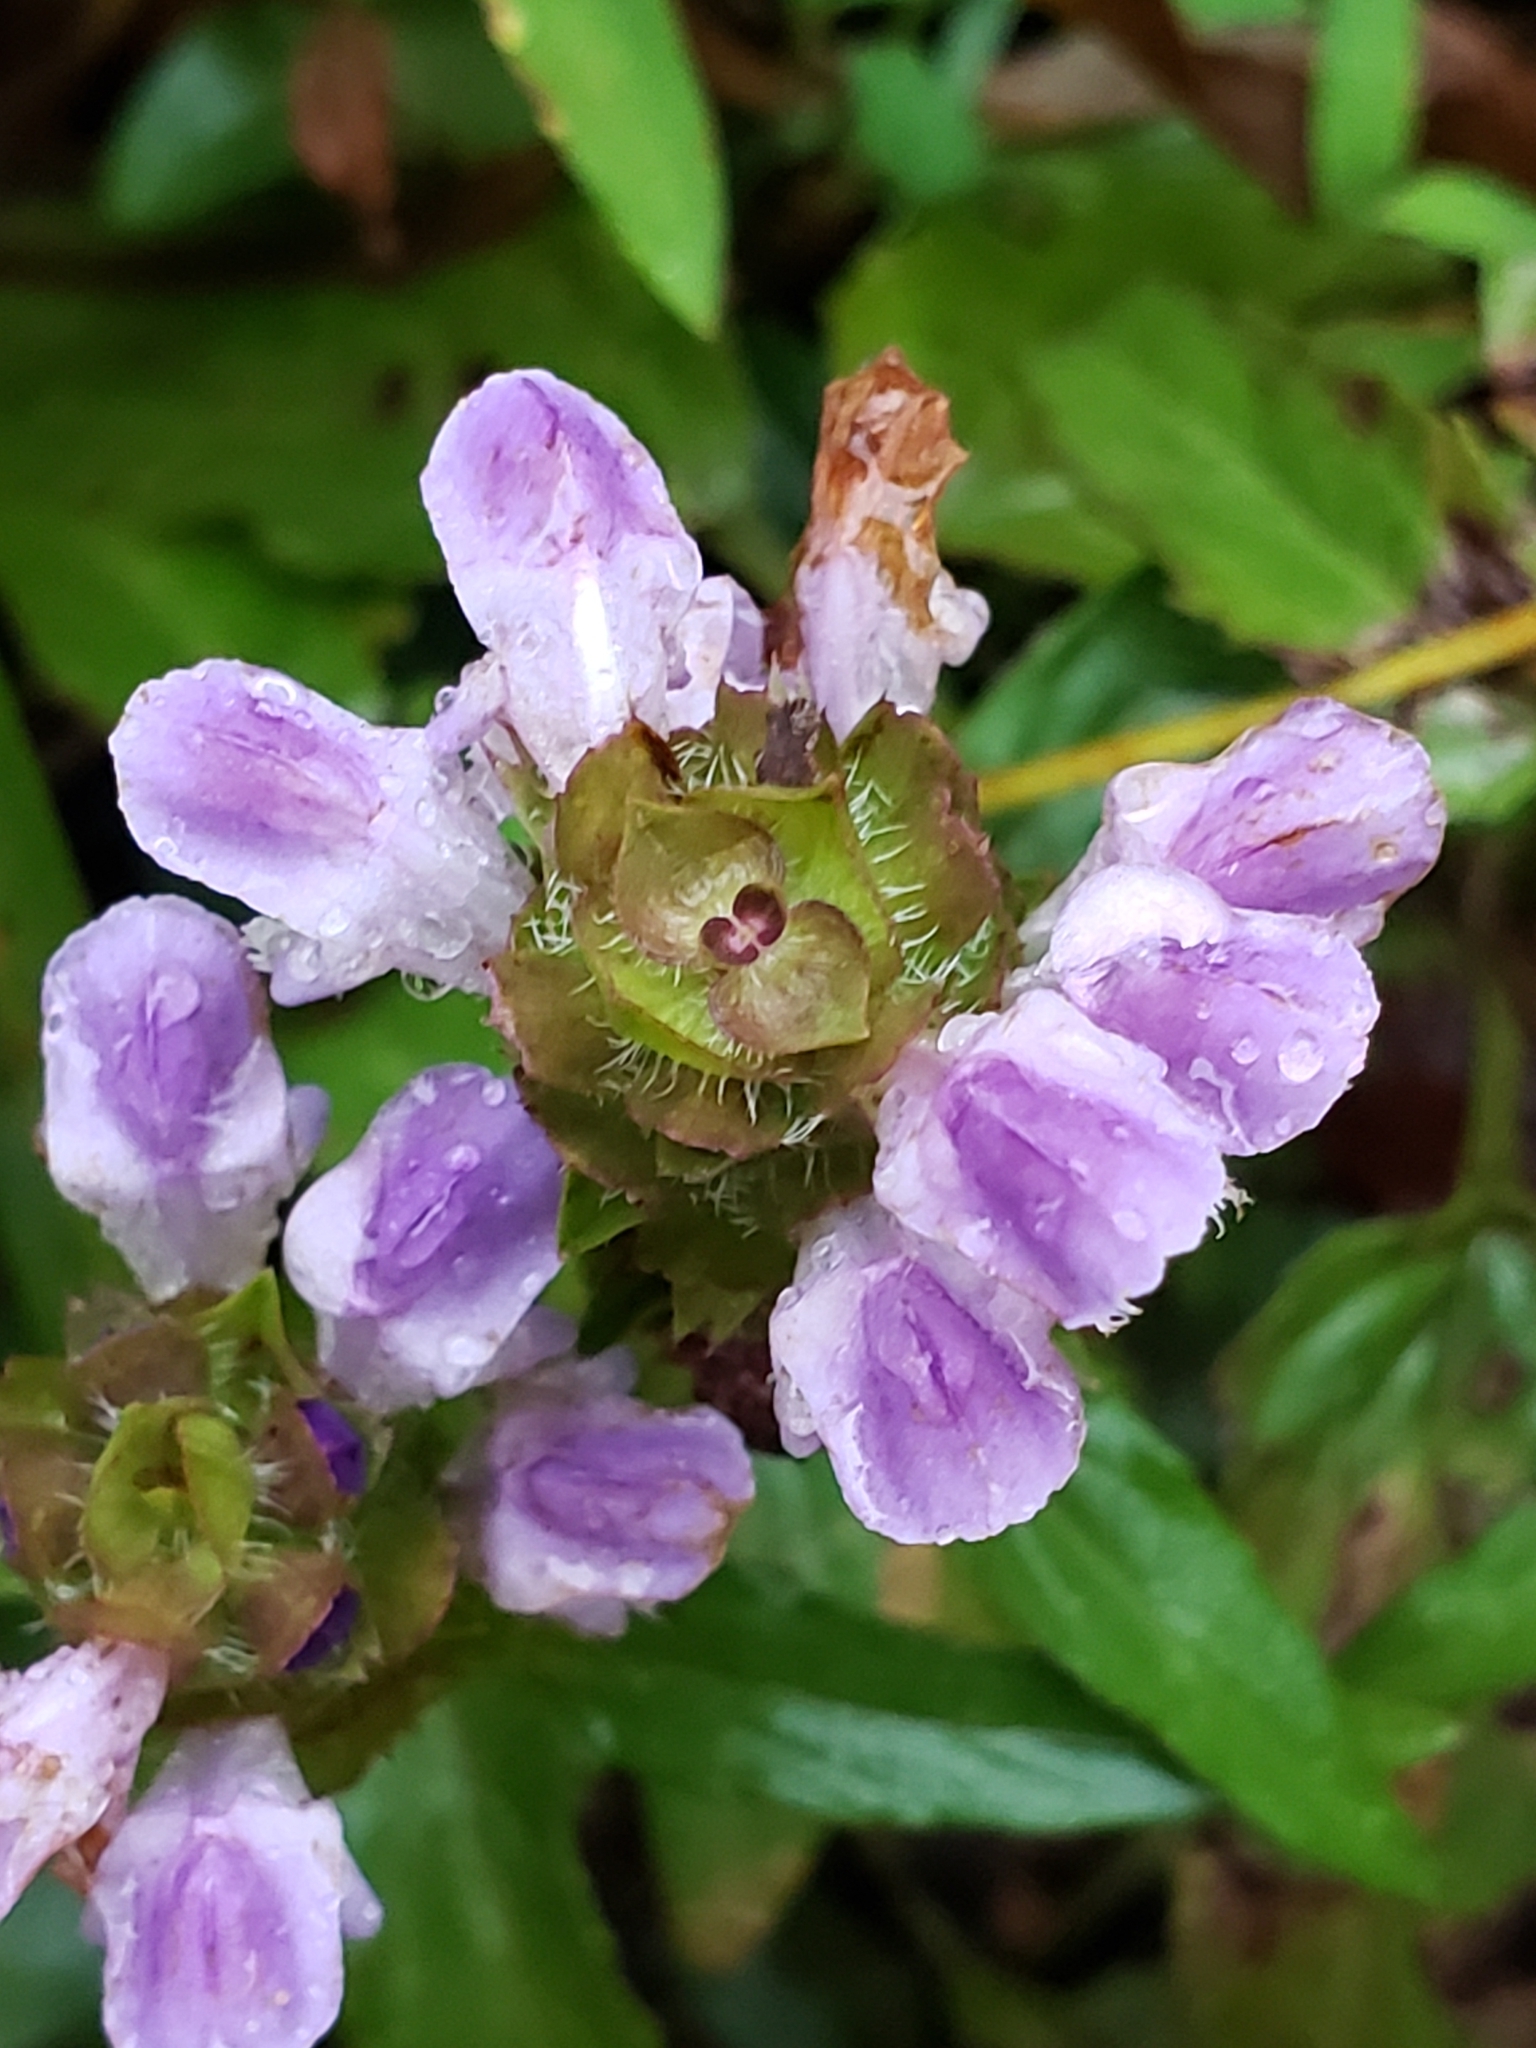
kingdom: Plantae
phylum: Tracheophyta
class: Magnoliopsida
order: Lamiales
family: Lamiaceae
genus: Prunella
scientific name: Prunella vulgaris
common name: Heal-all
